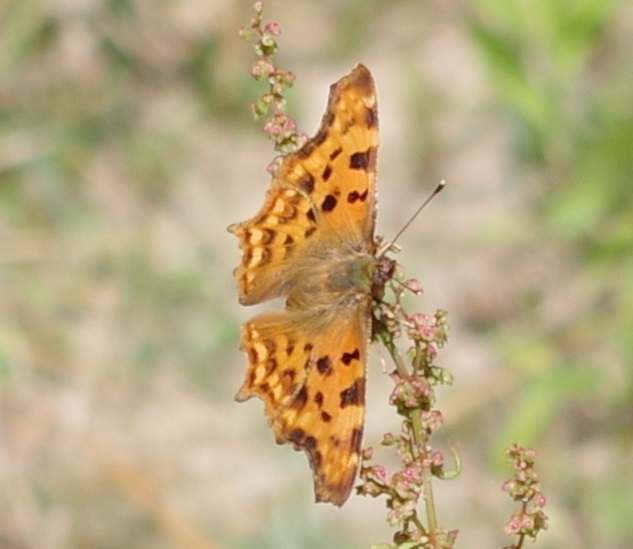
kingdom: Animalia
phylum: Arthropoda
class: Insecta
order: Lepidoptera
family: Nymphalidae
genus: Polygonia
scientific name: Polygonia c-album
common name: Comma
